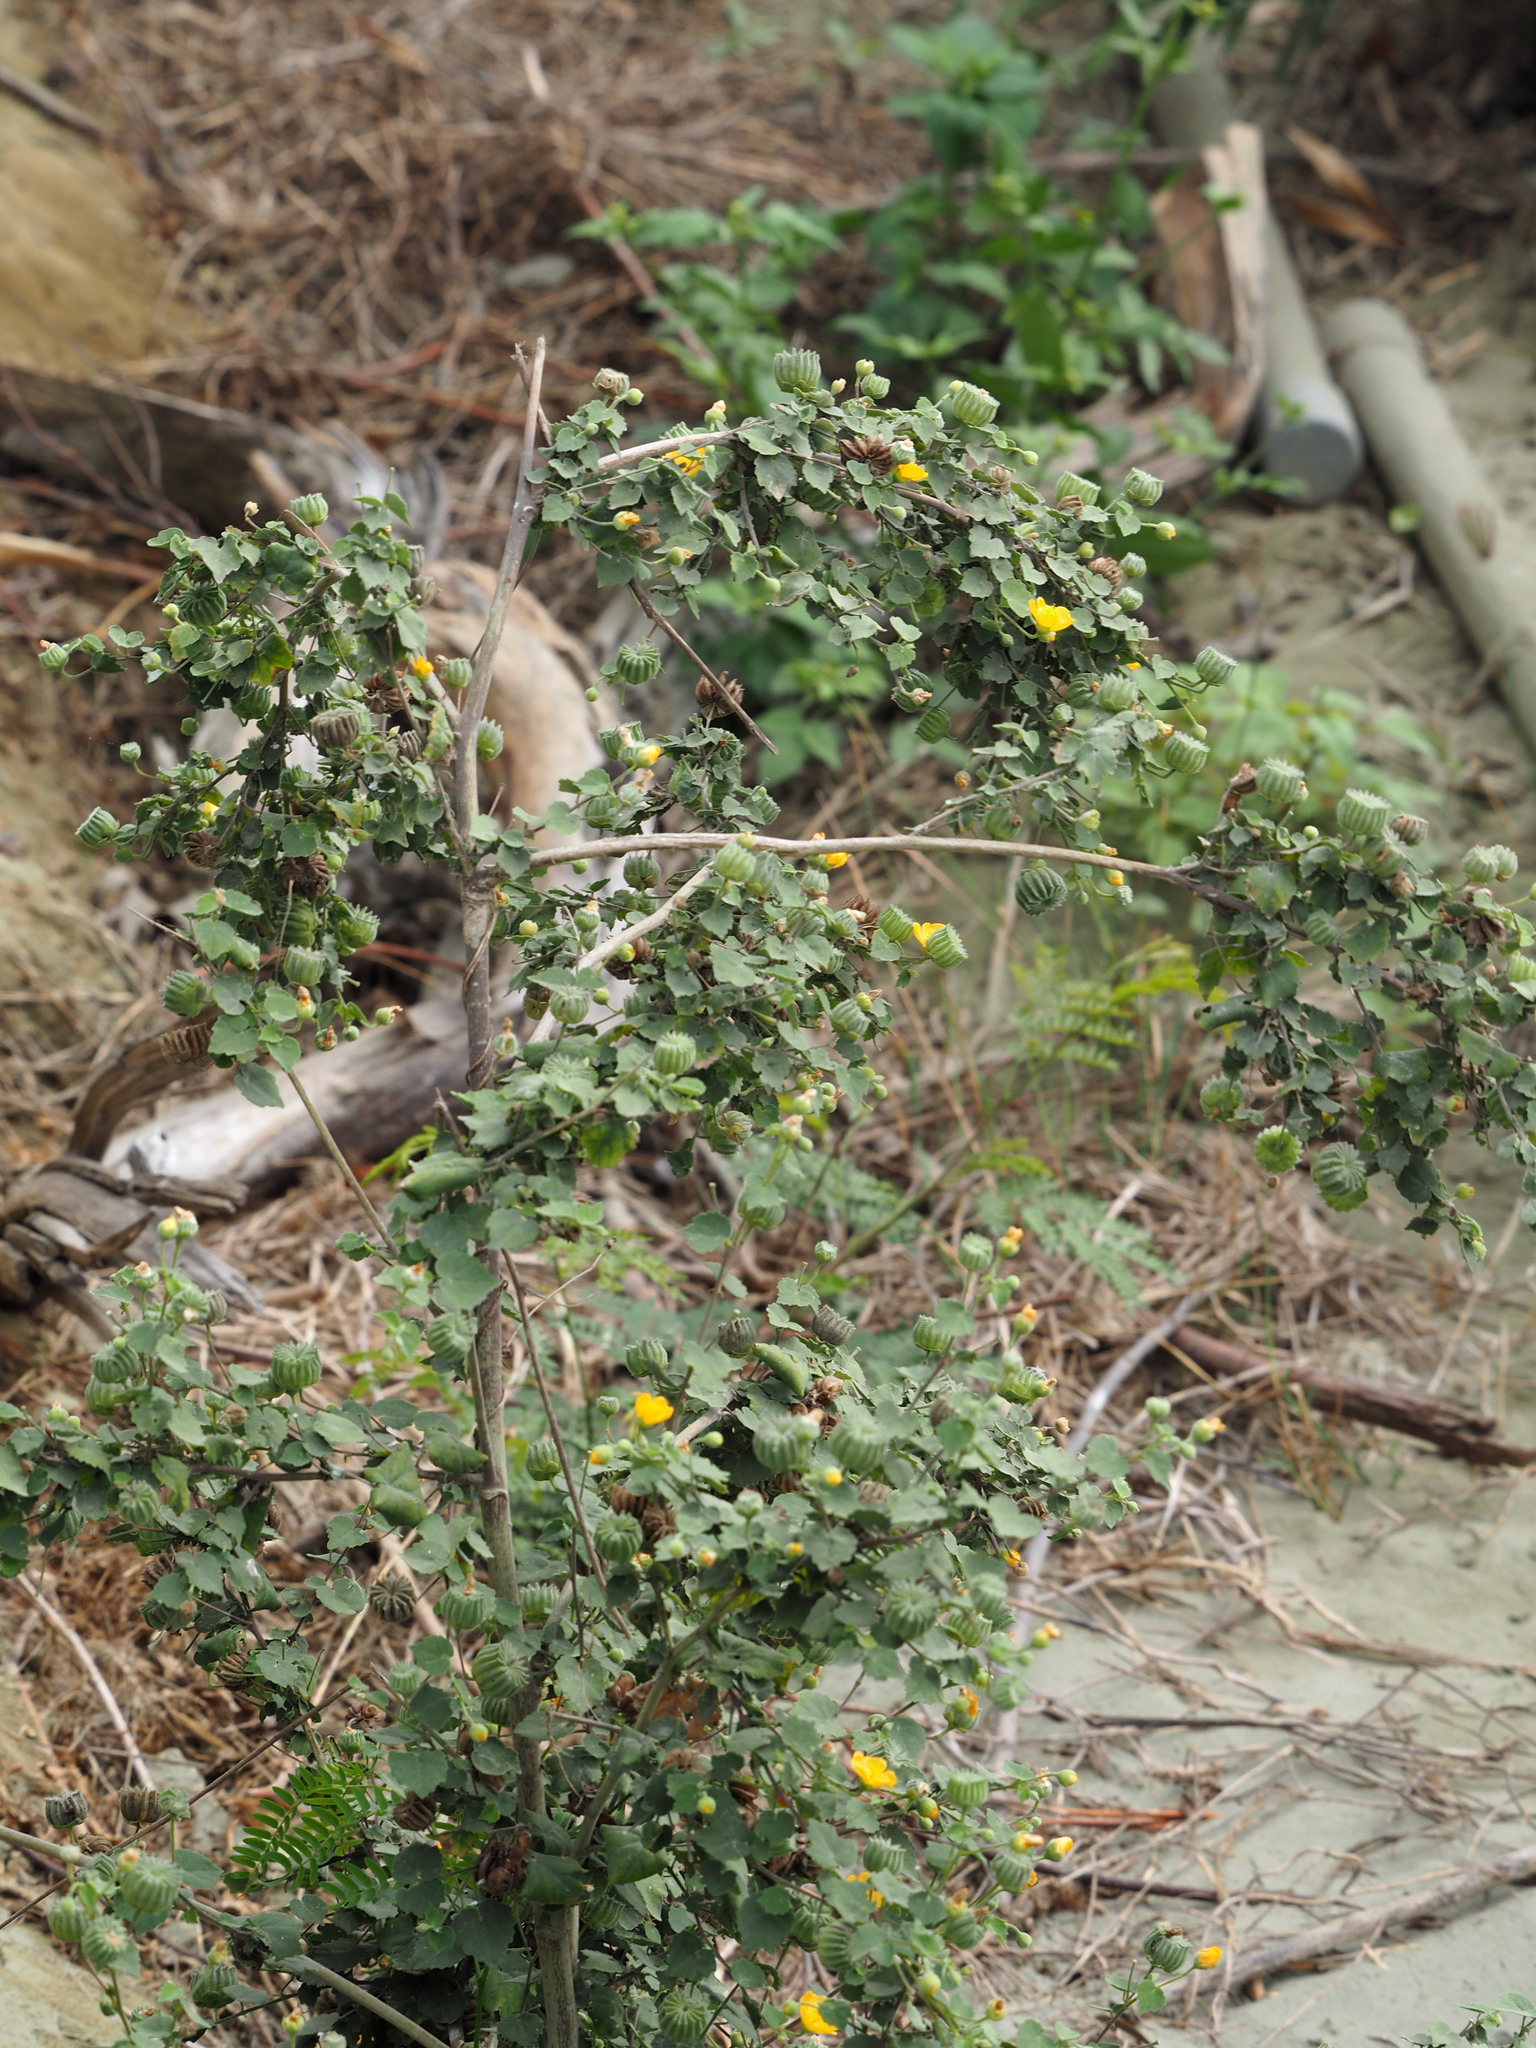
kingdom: Plantae
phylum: Tracheophyta
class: Magnoliopsida
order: Malvales
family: Malvaceae
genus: Abutilon
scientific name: Abutilon indicum
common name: Indian abutilon
